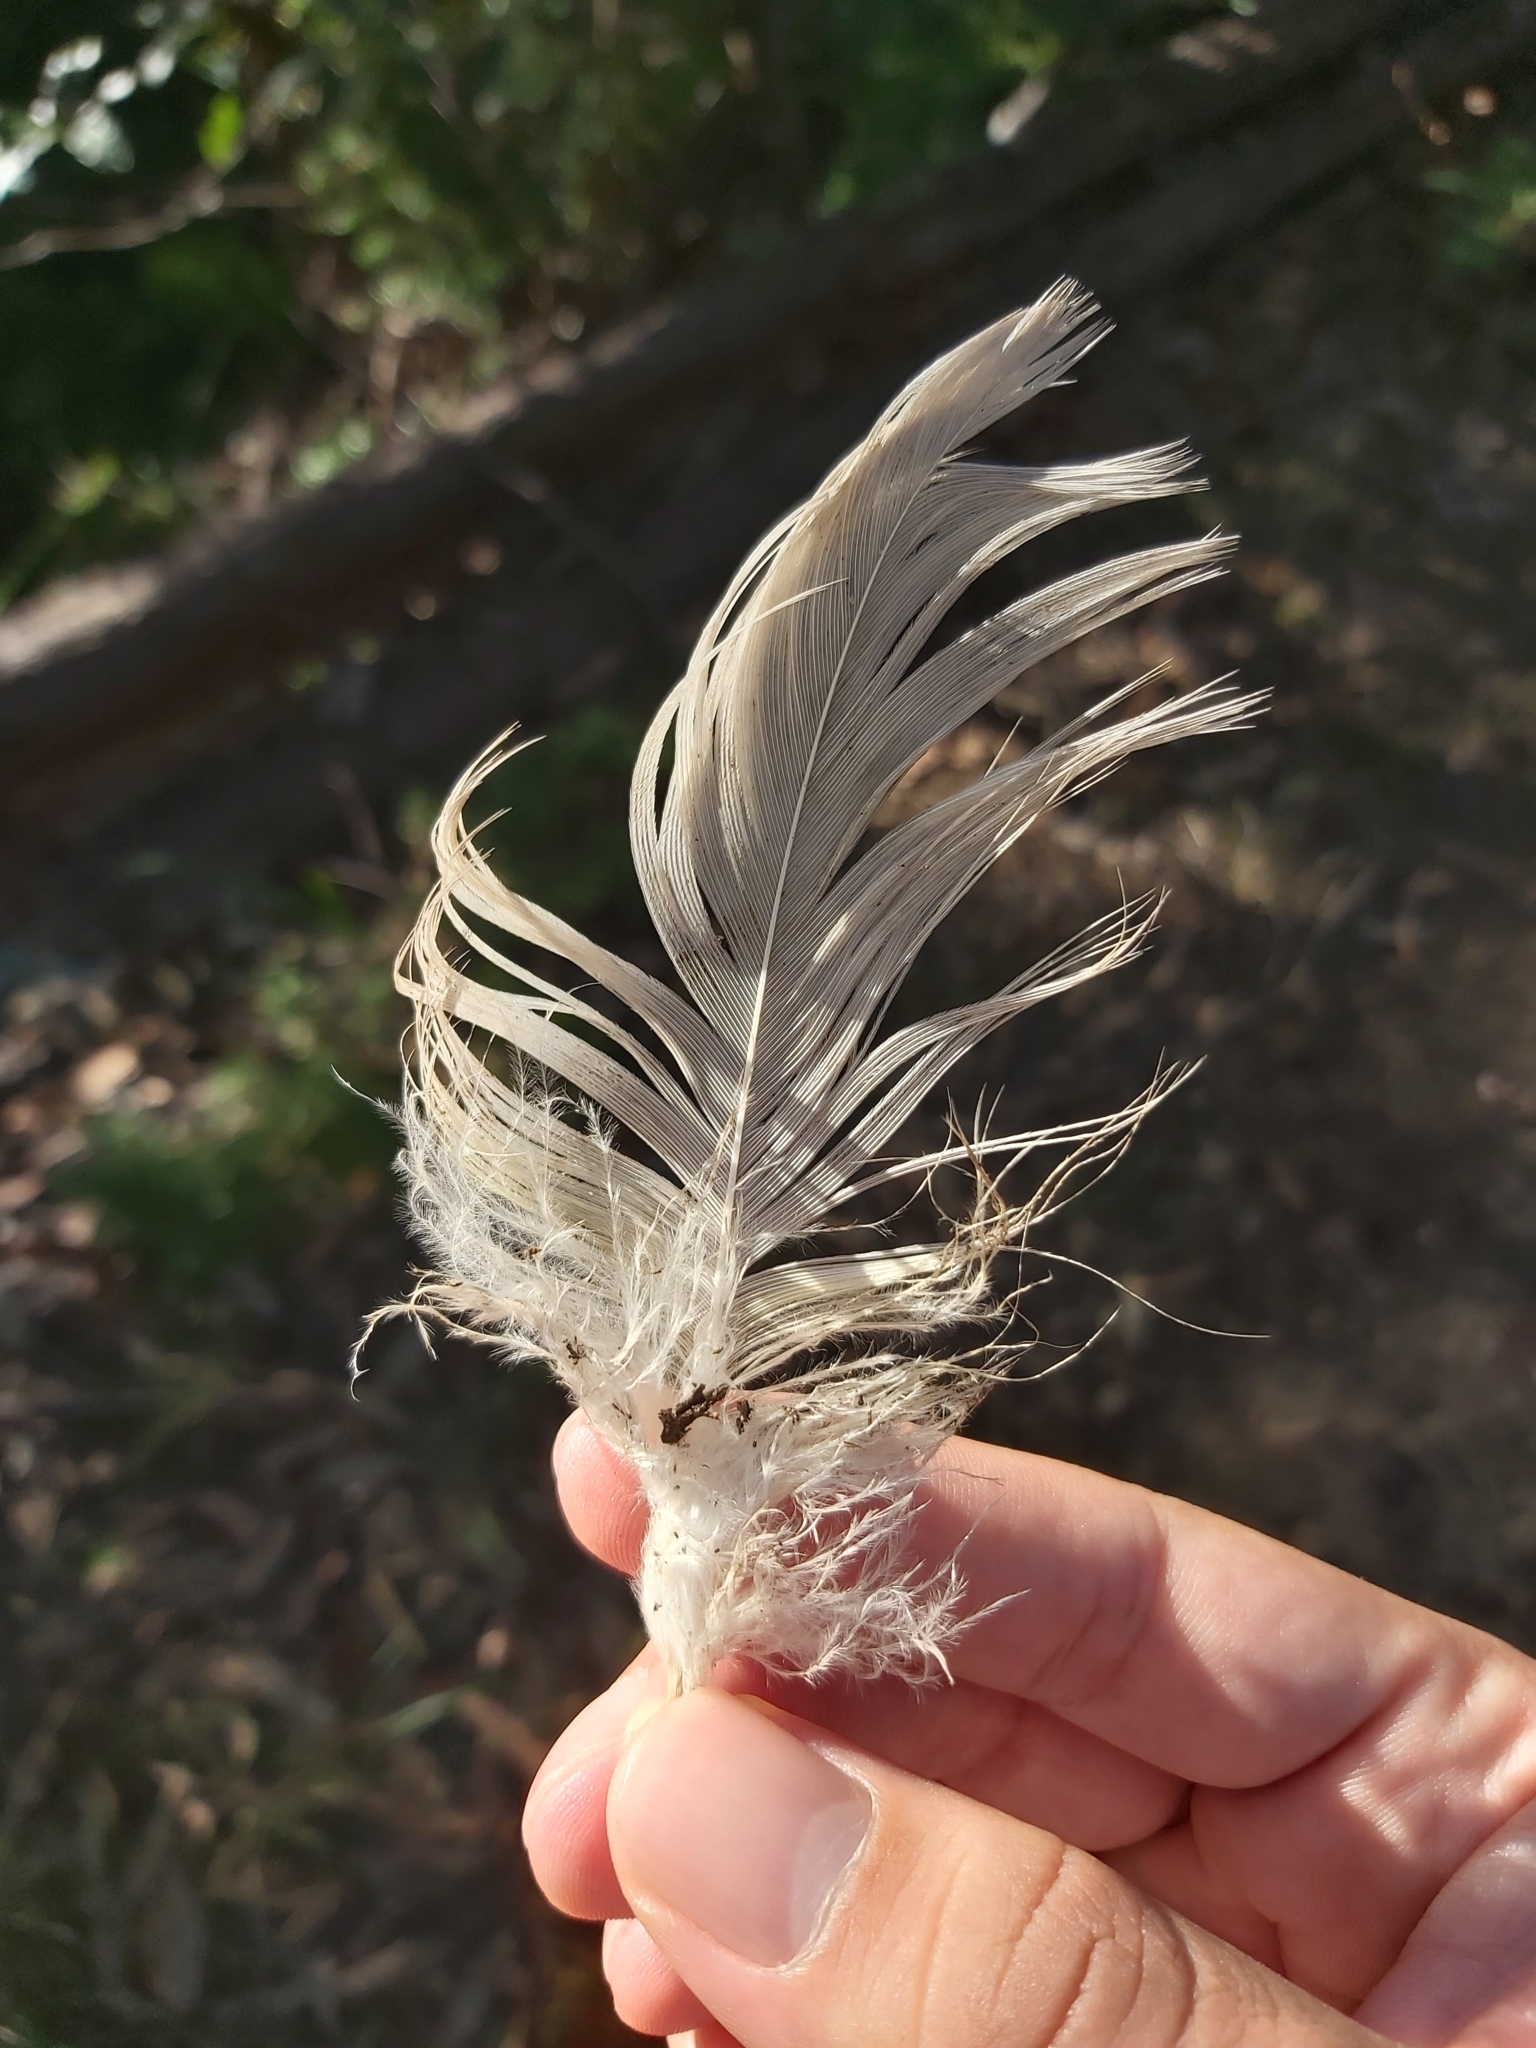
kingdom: Animalia
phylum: Chordata
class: Aves
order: Psittaciformes
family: Psittacidae
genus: Cacatua
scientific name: Cacatua galerita
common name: Sulphur-crested cockatoo
